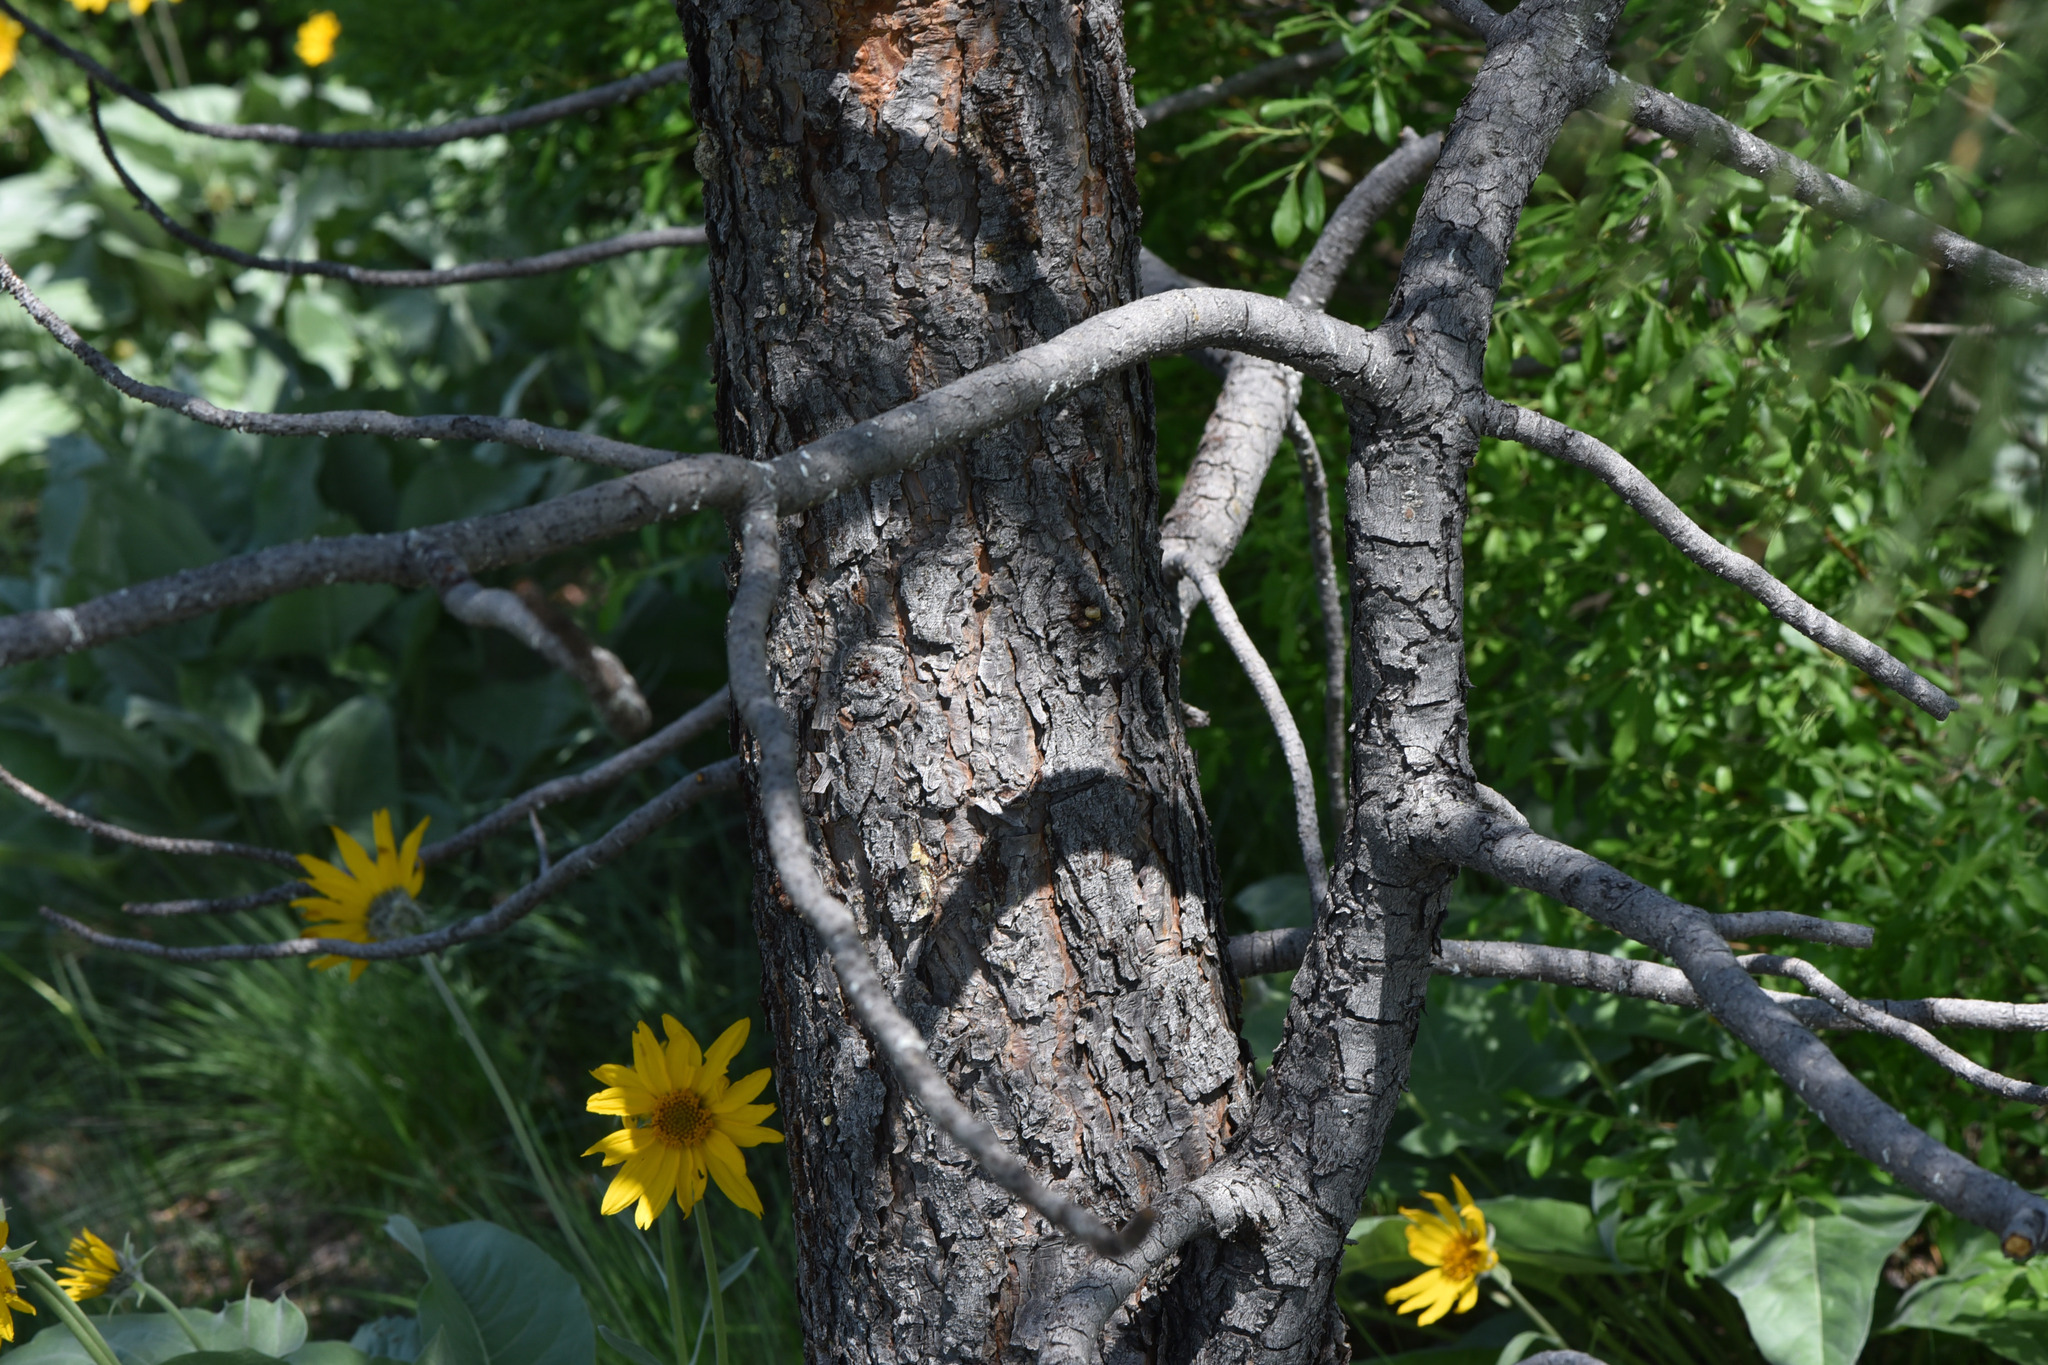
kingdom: Plantae
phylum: Tracheophyta
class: Pinopsida
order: Pinales
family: Pinaceae
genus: Pinus
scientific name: Pinus ponderosa
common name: Western yellow-pine
